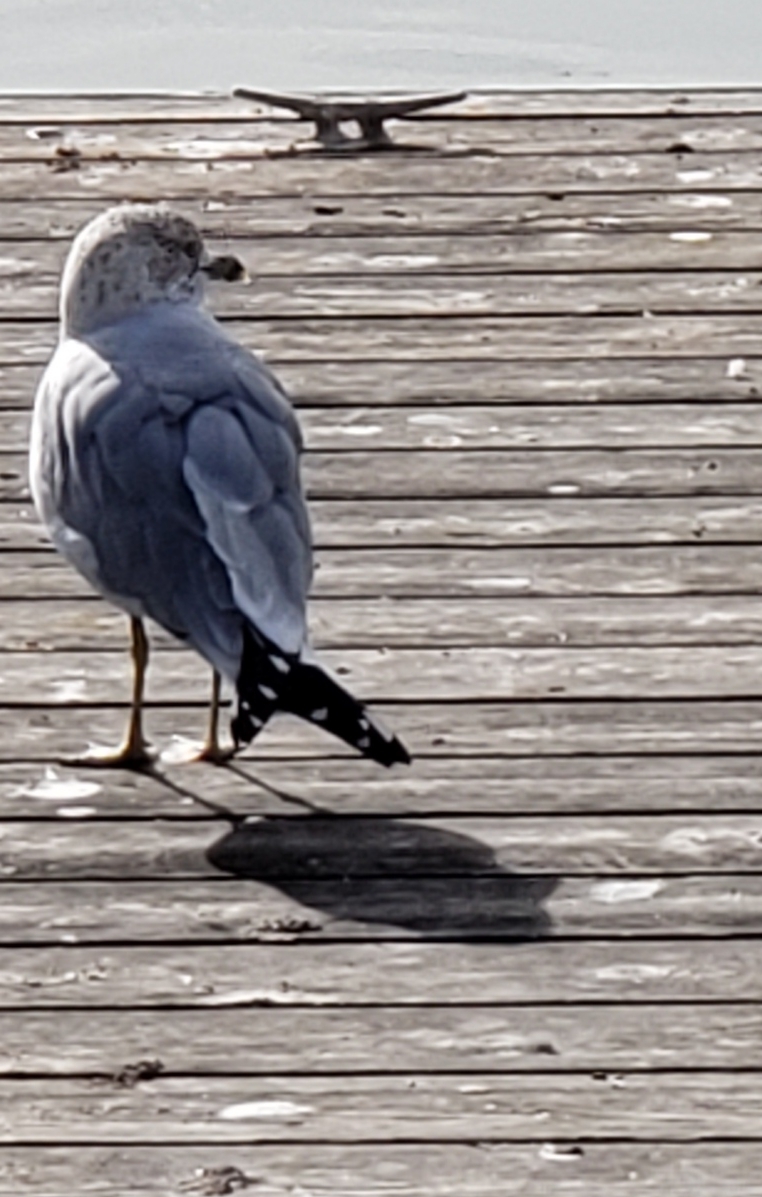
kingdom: Animalia
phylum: Chordata
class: Aves
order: Charadriiformes
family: Laridae
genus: Larus
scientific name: Larus delawarensis
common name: Ring-billed gull
